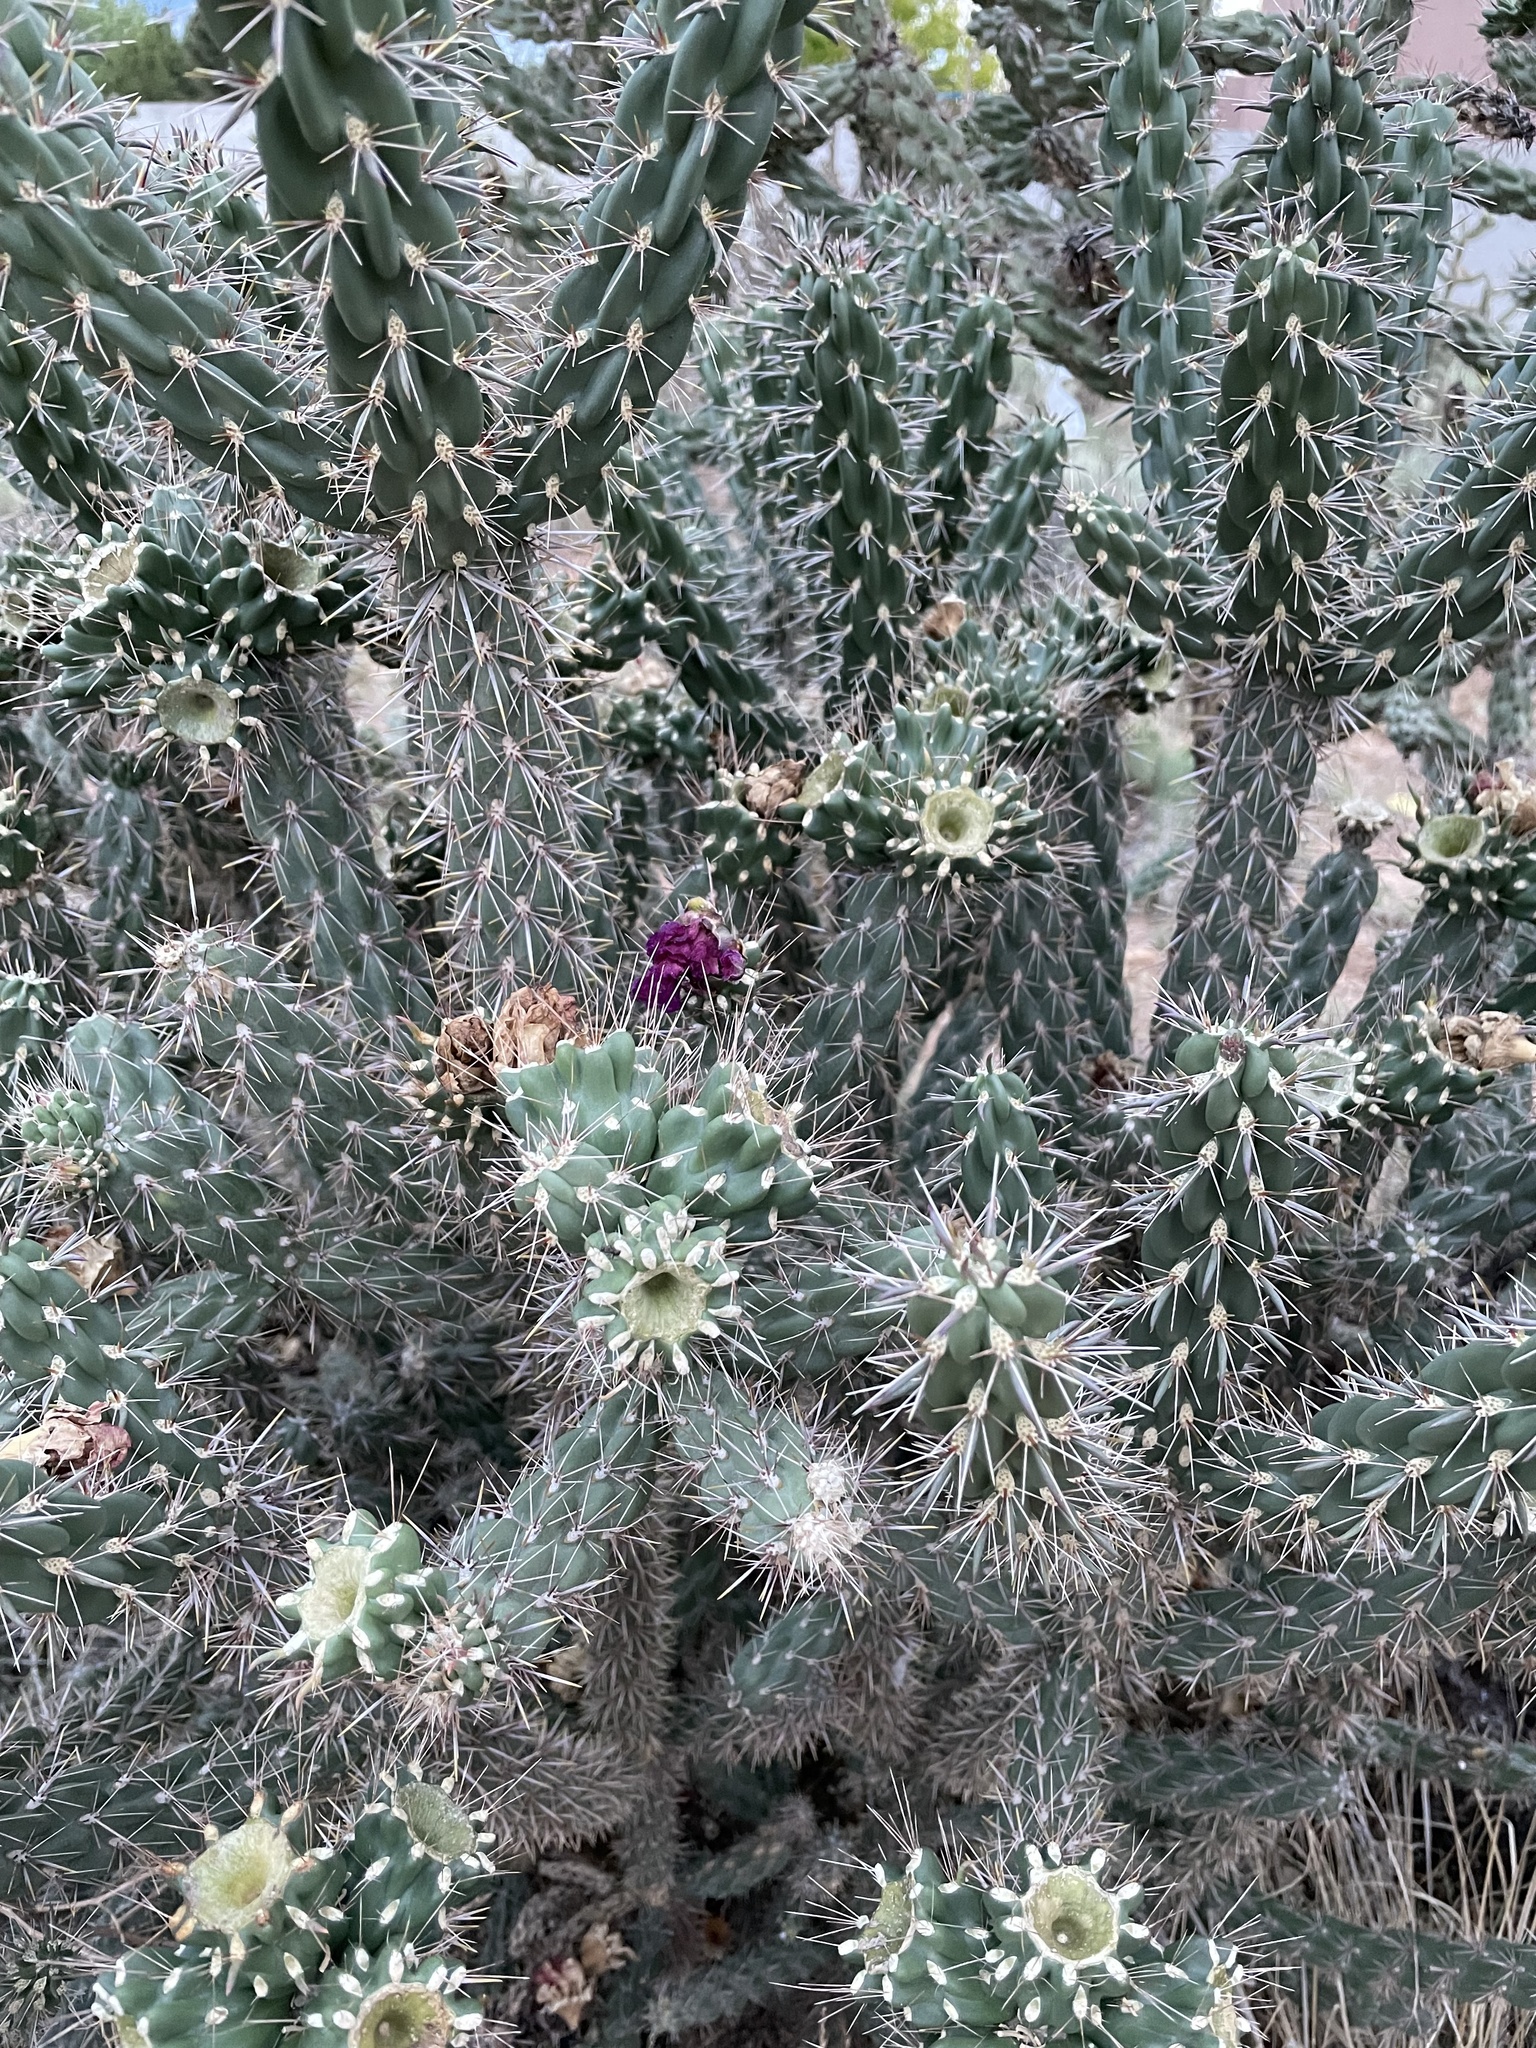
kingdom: Plantae
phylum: Tracheophyta
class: Magnoliopsida
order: Caryophyllales
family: Cactaceae
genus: Cylindropuntia
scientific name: Cylindropuntia imbricata
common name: Candelabrum cactus
